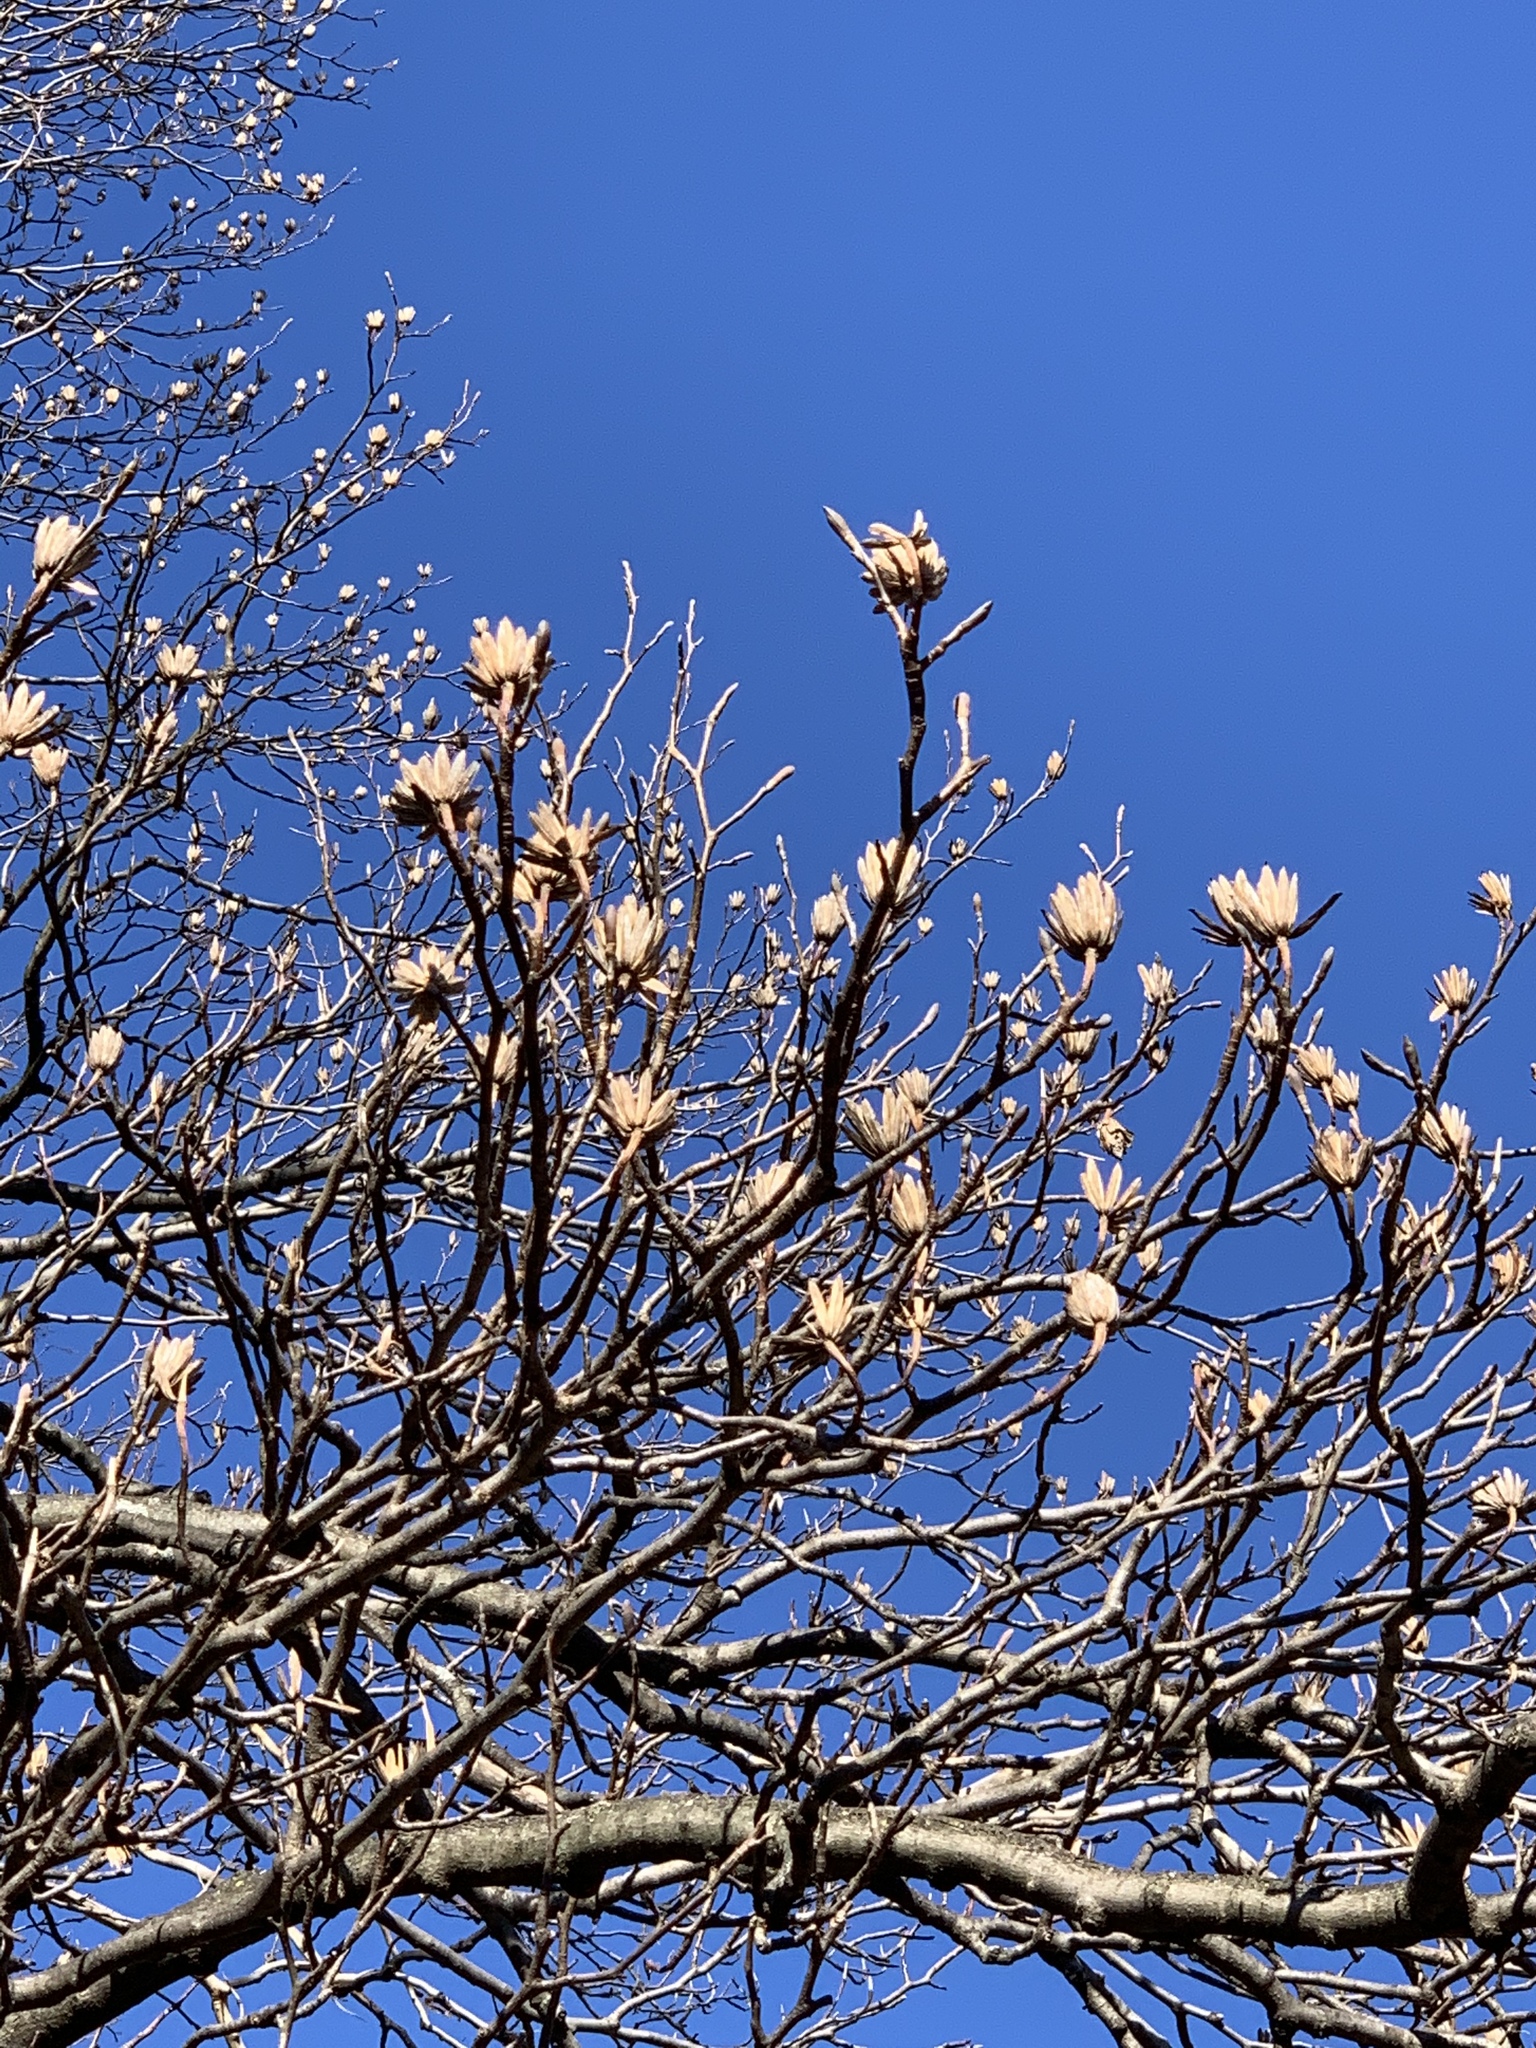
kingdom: Plantae
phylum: Tracheophyta
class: Magnoliopsida
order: Magnoliales
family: Magnoliaceae
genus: Liriodendron
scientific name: Liriodendron tulipifera
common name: Tulip tree
